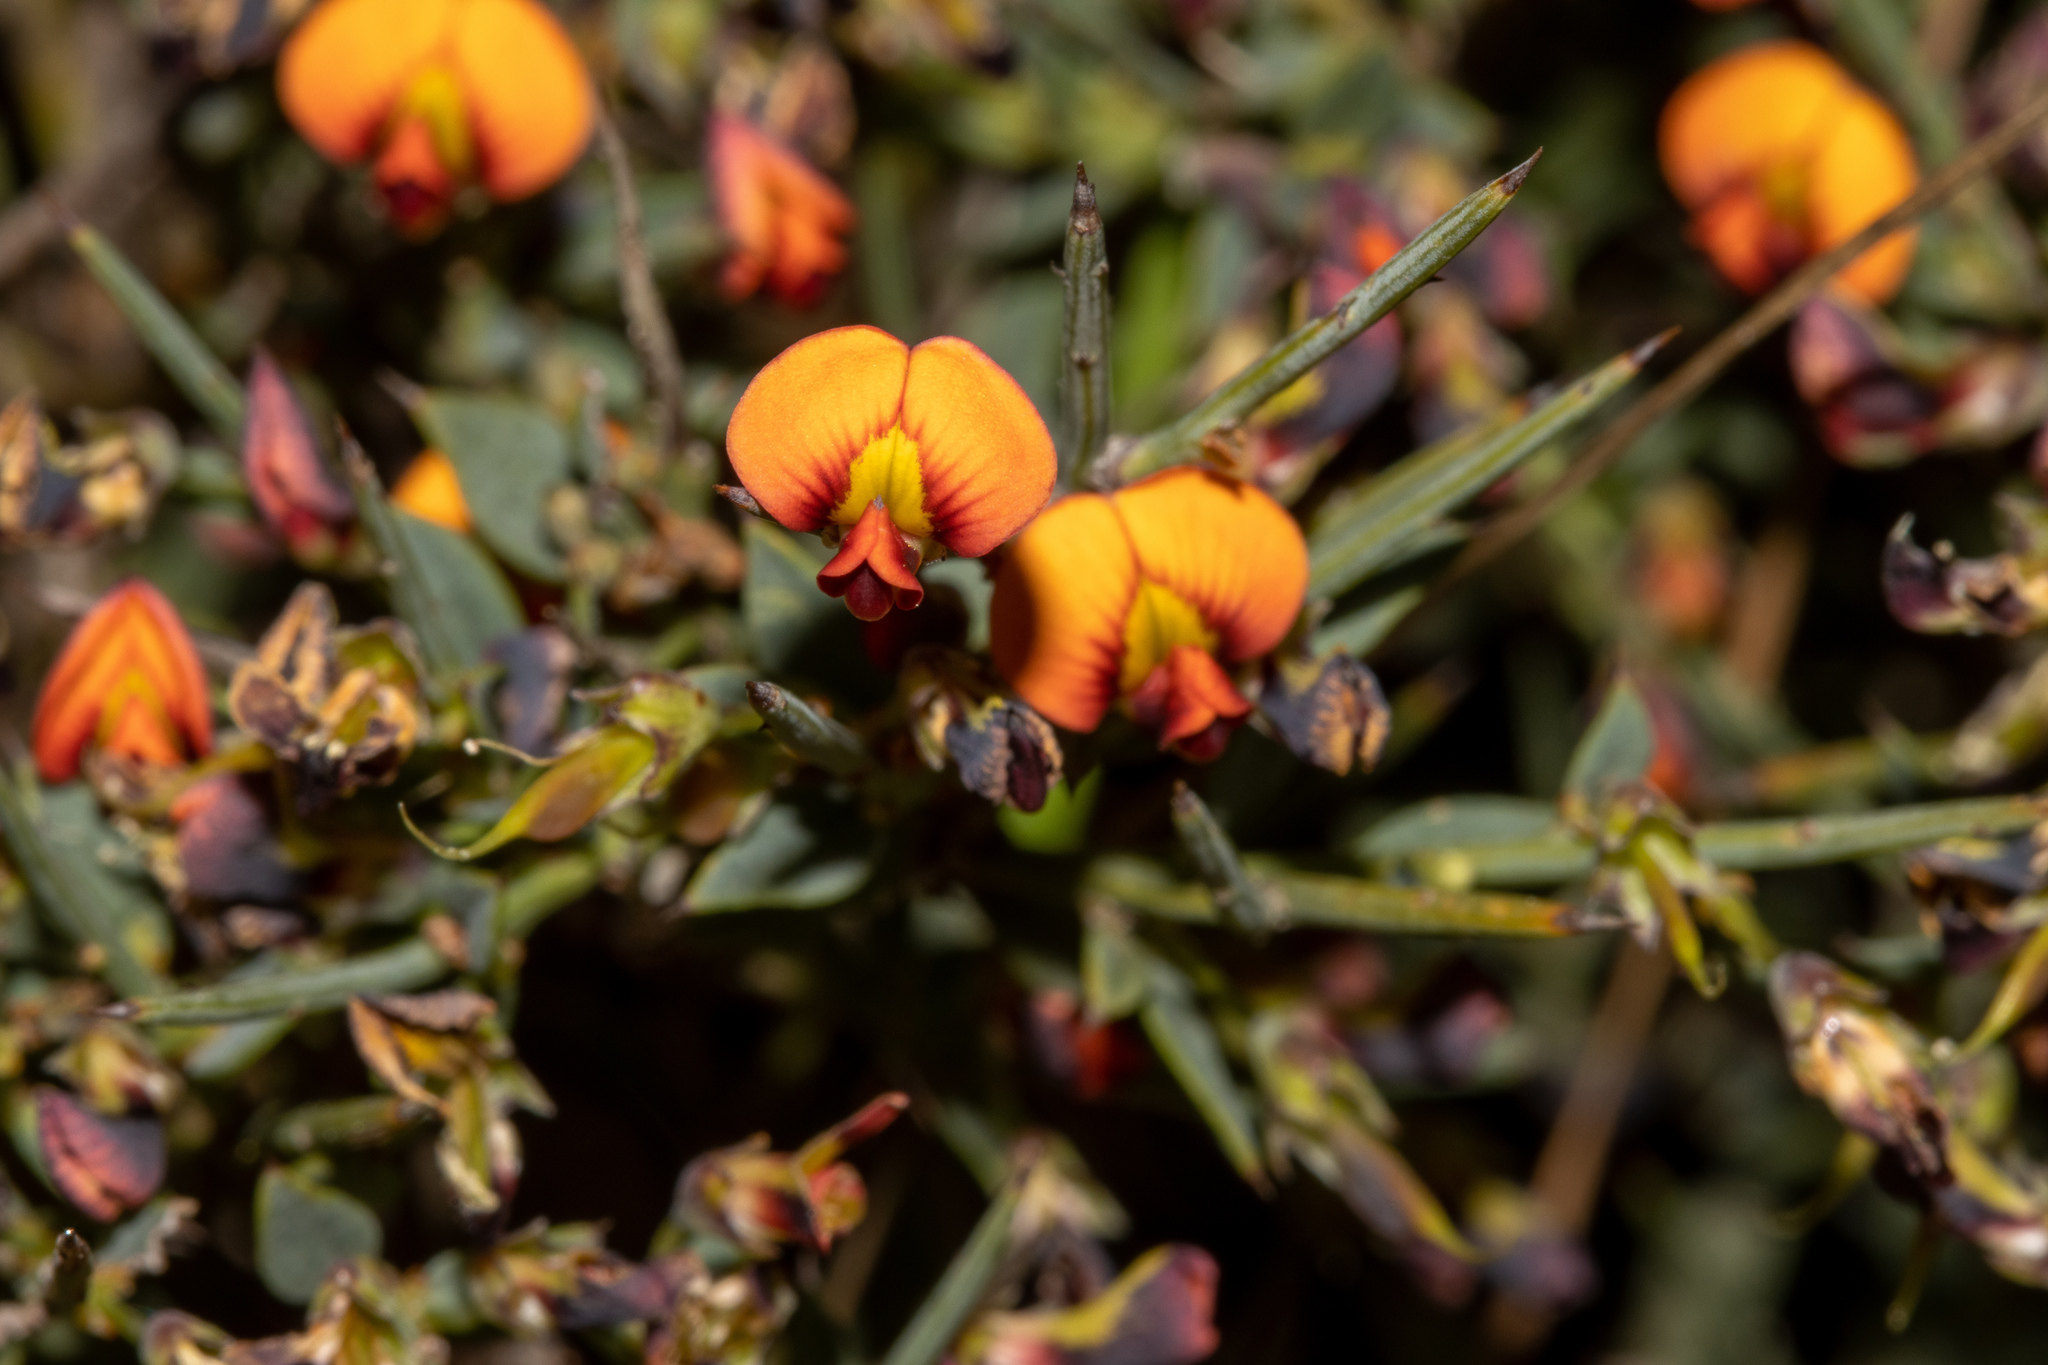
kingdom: Plantae
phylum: Tracheophyta
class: Magnoliopsida
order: Fabales
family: Fabaceae
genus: Daviesia
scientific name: Daviesia ulicifolia
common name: Gorse bitter-pea
